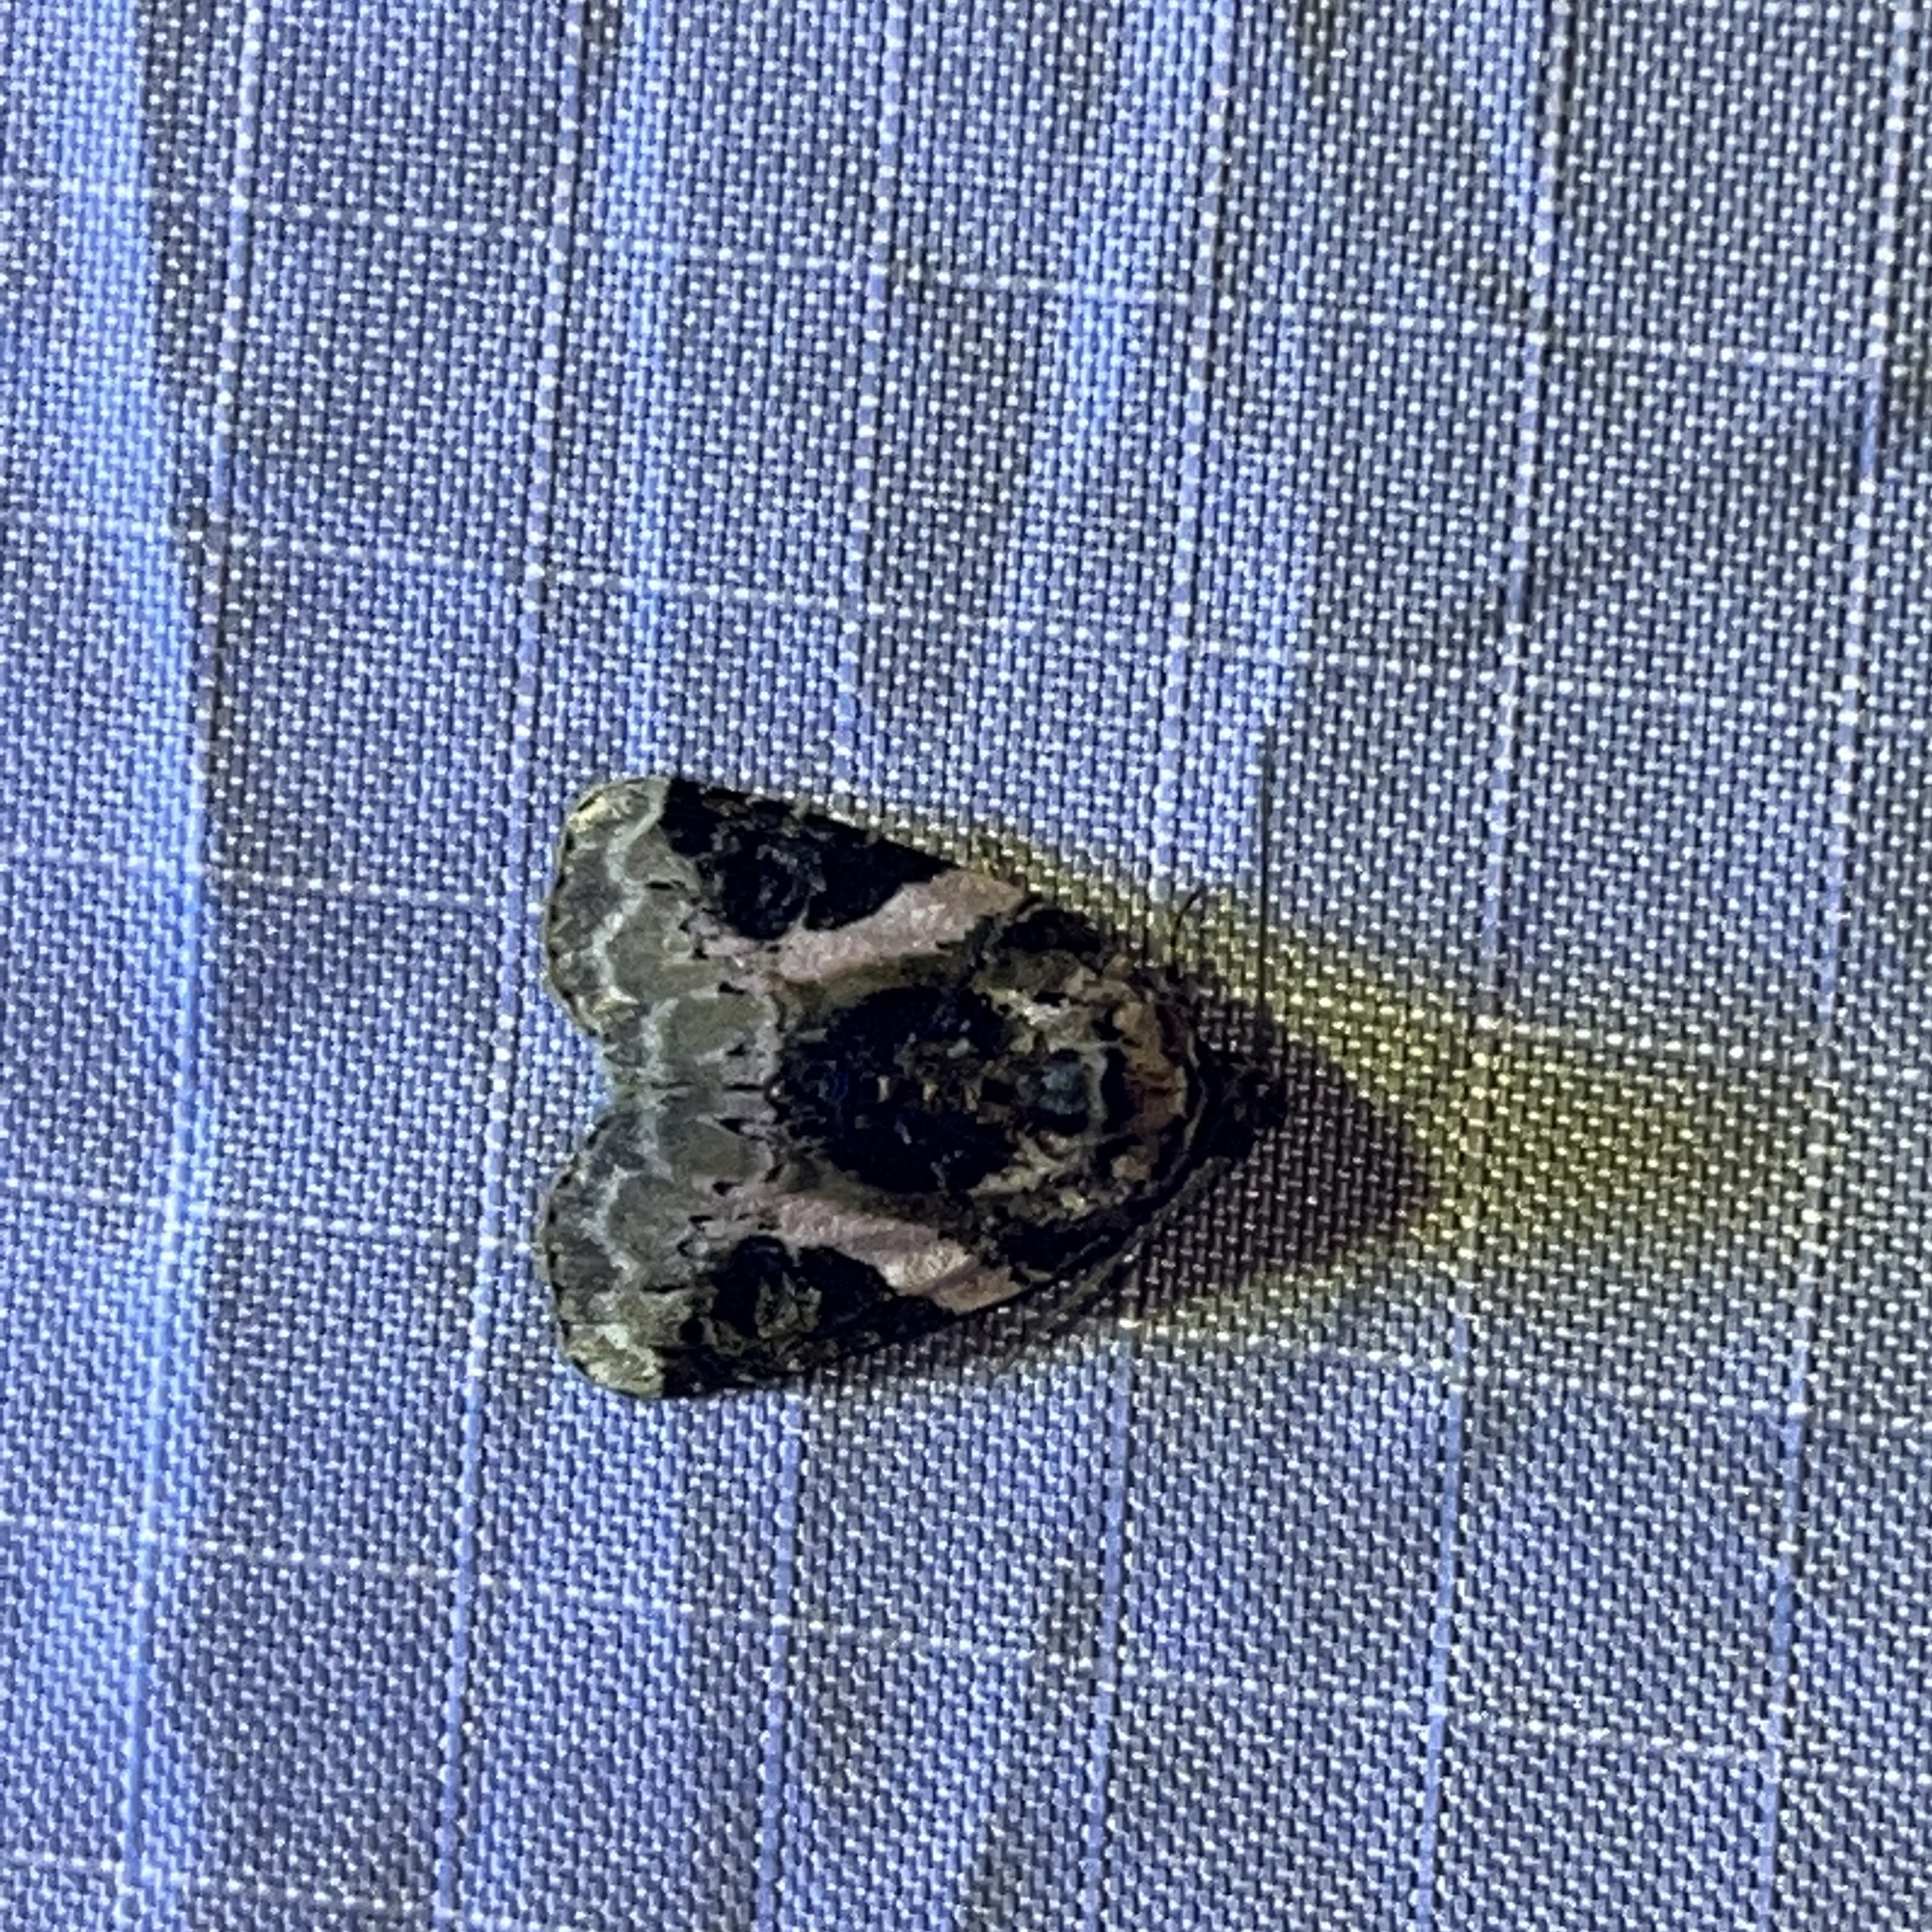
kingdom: Animalia
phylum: Arthropoda
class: Insecta
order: Lepidoptera
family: Noctuidae
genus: Pseudeustrotia
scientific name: Pseudeustrotia carneola
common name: Pink-barred lithacodia moth
